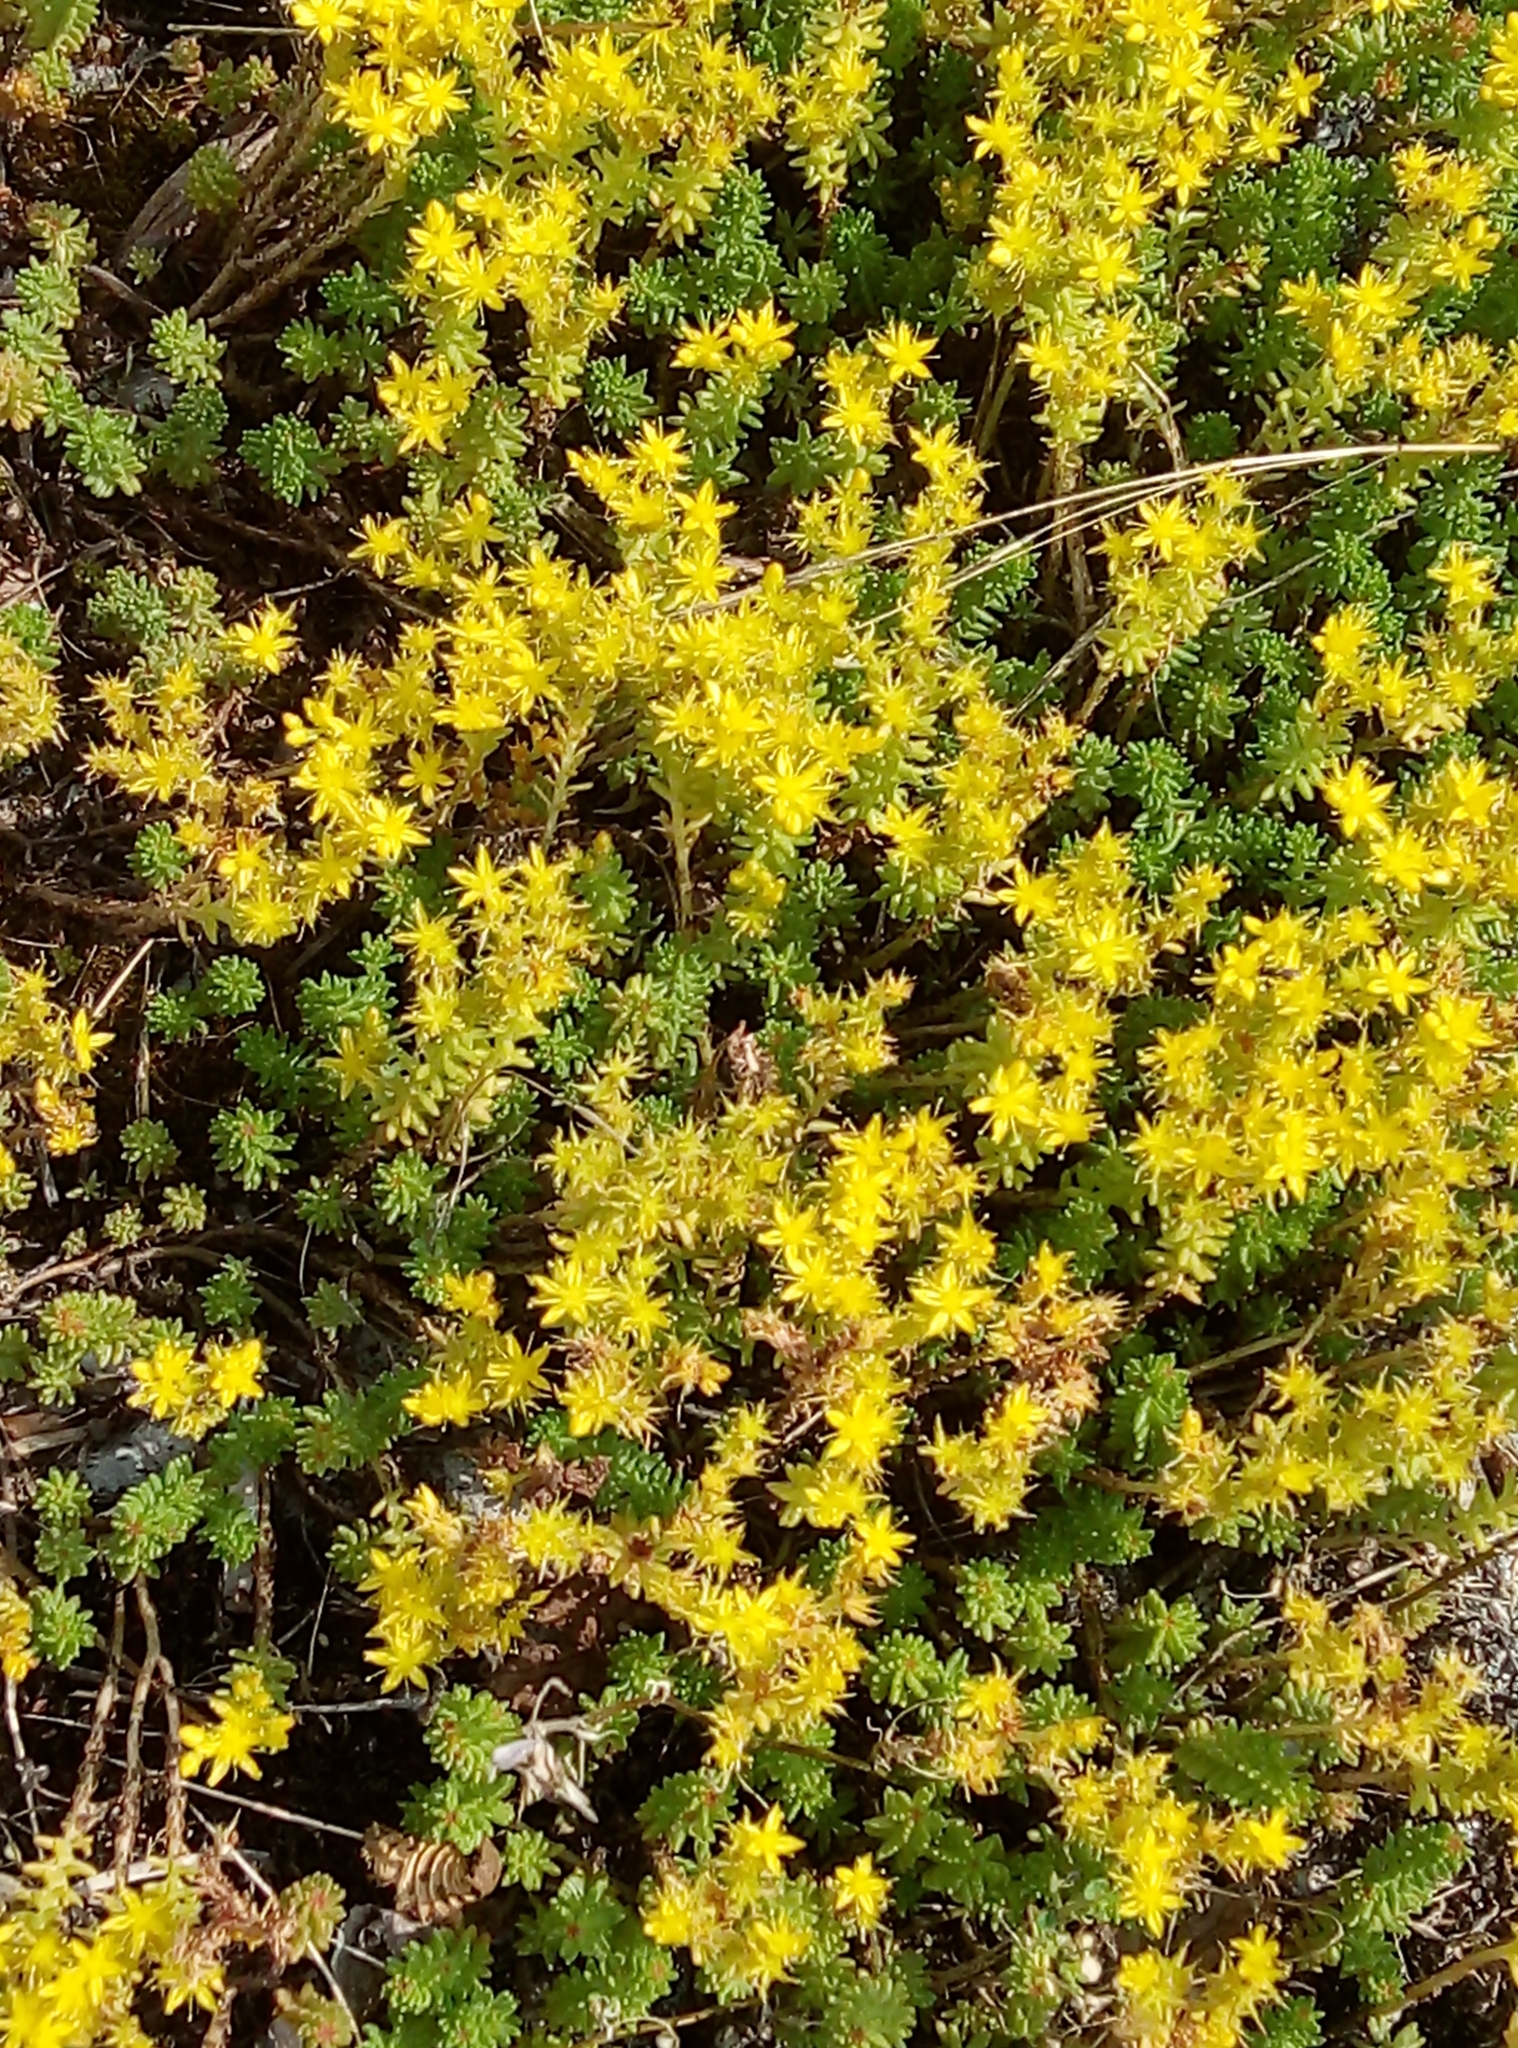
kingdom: Plantae
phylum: Tracheophyta
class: Magnoliopsida
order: Saxifragales
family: Crassulaceae
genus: Sedum
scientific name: Sedum sexangulare
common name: Tasteless stonecrop
